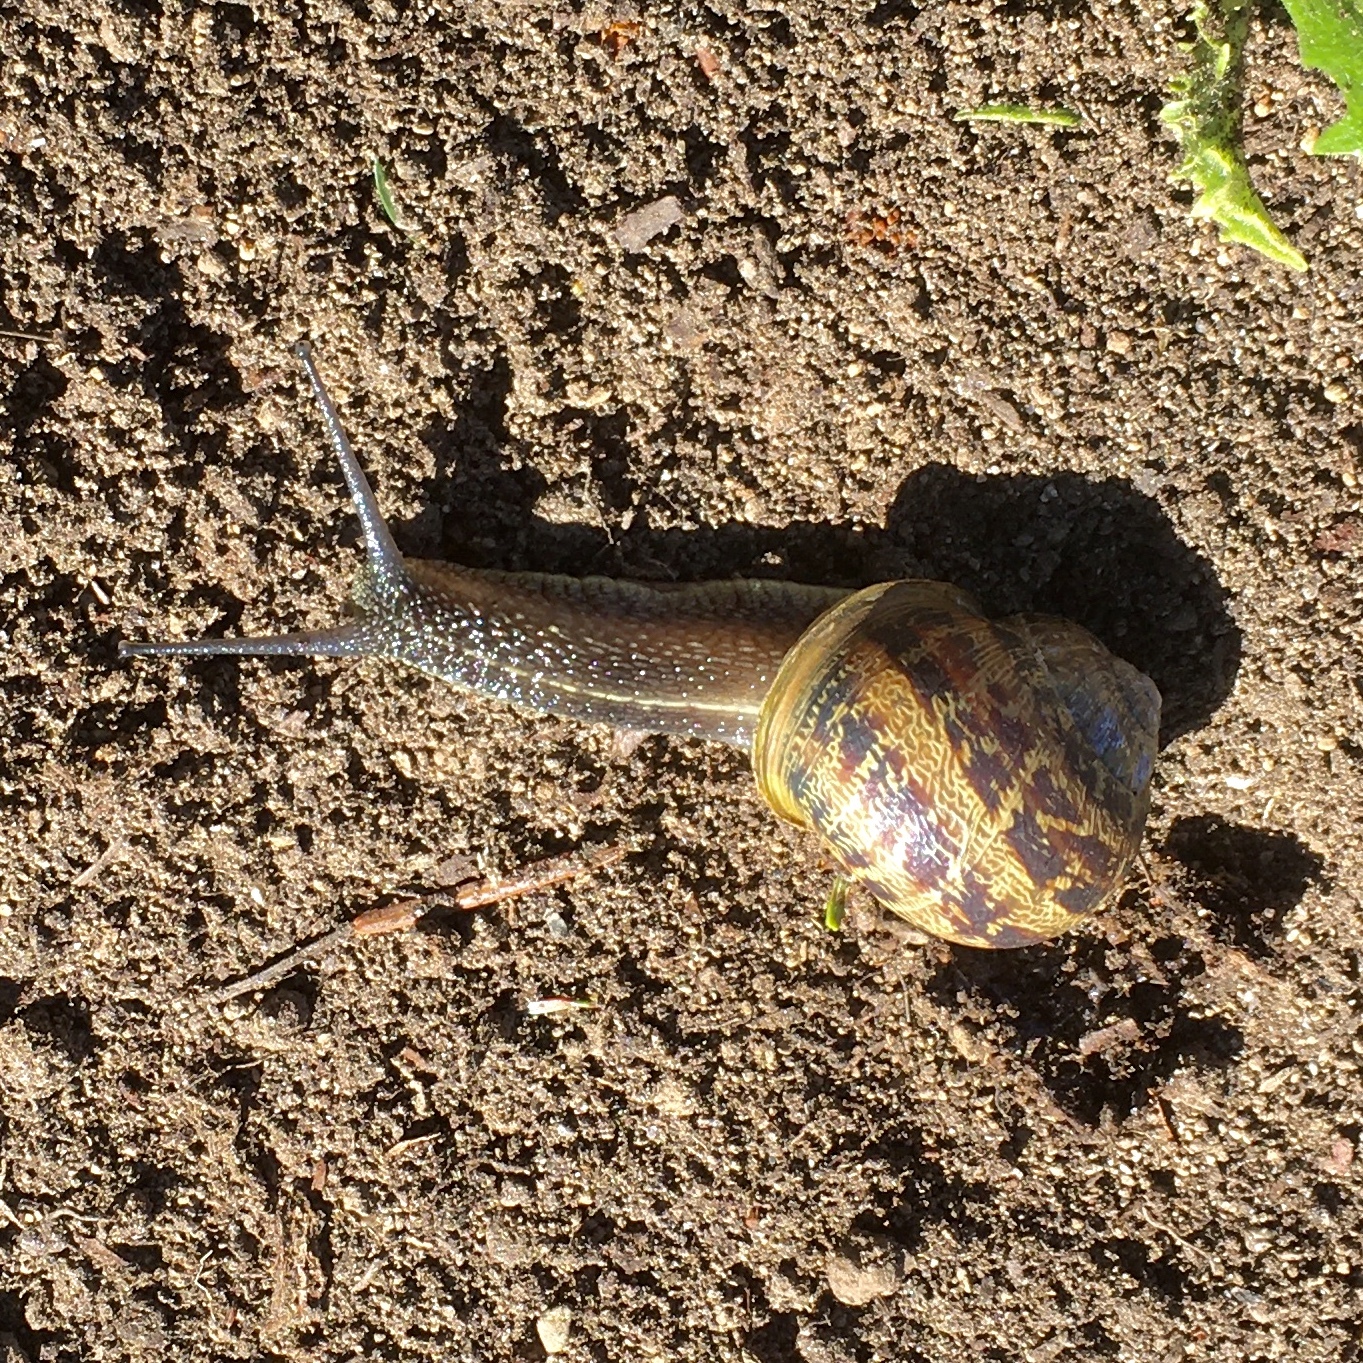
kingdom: Animalia
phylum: Mollusca
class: Gastropoda
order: Stylommatophora
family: Helicidae
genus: Cornu
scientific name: Cornu aspersum
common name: Brown garden snail
